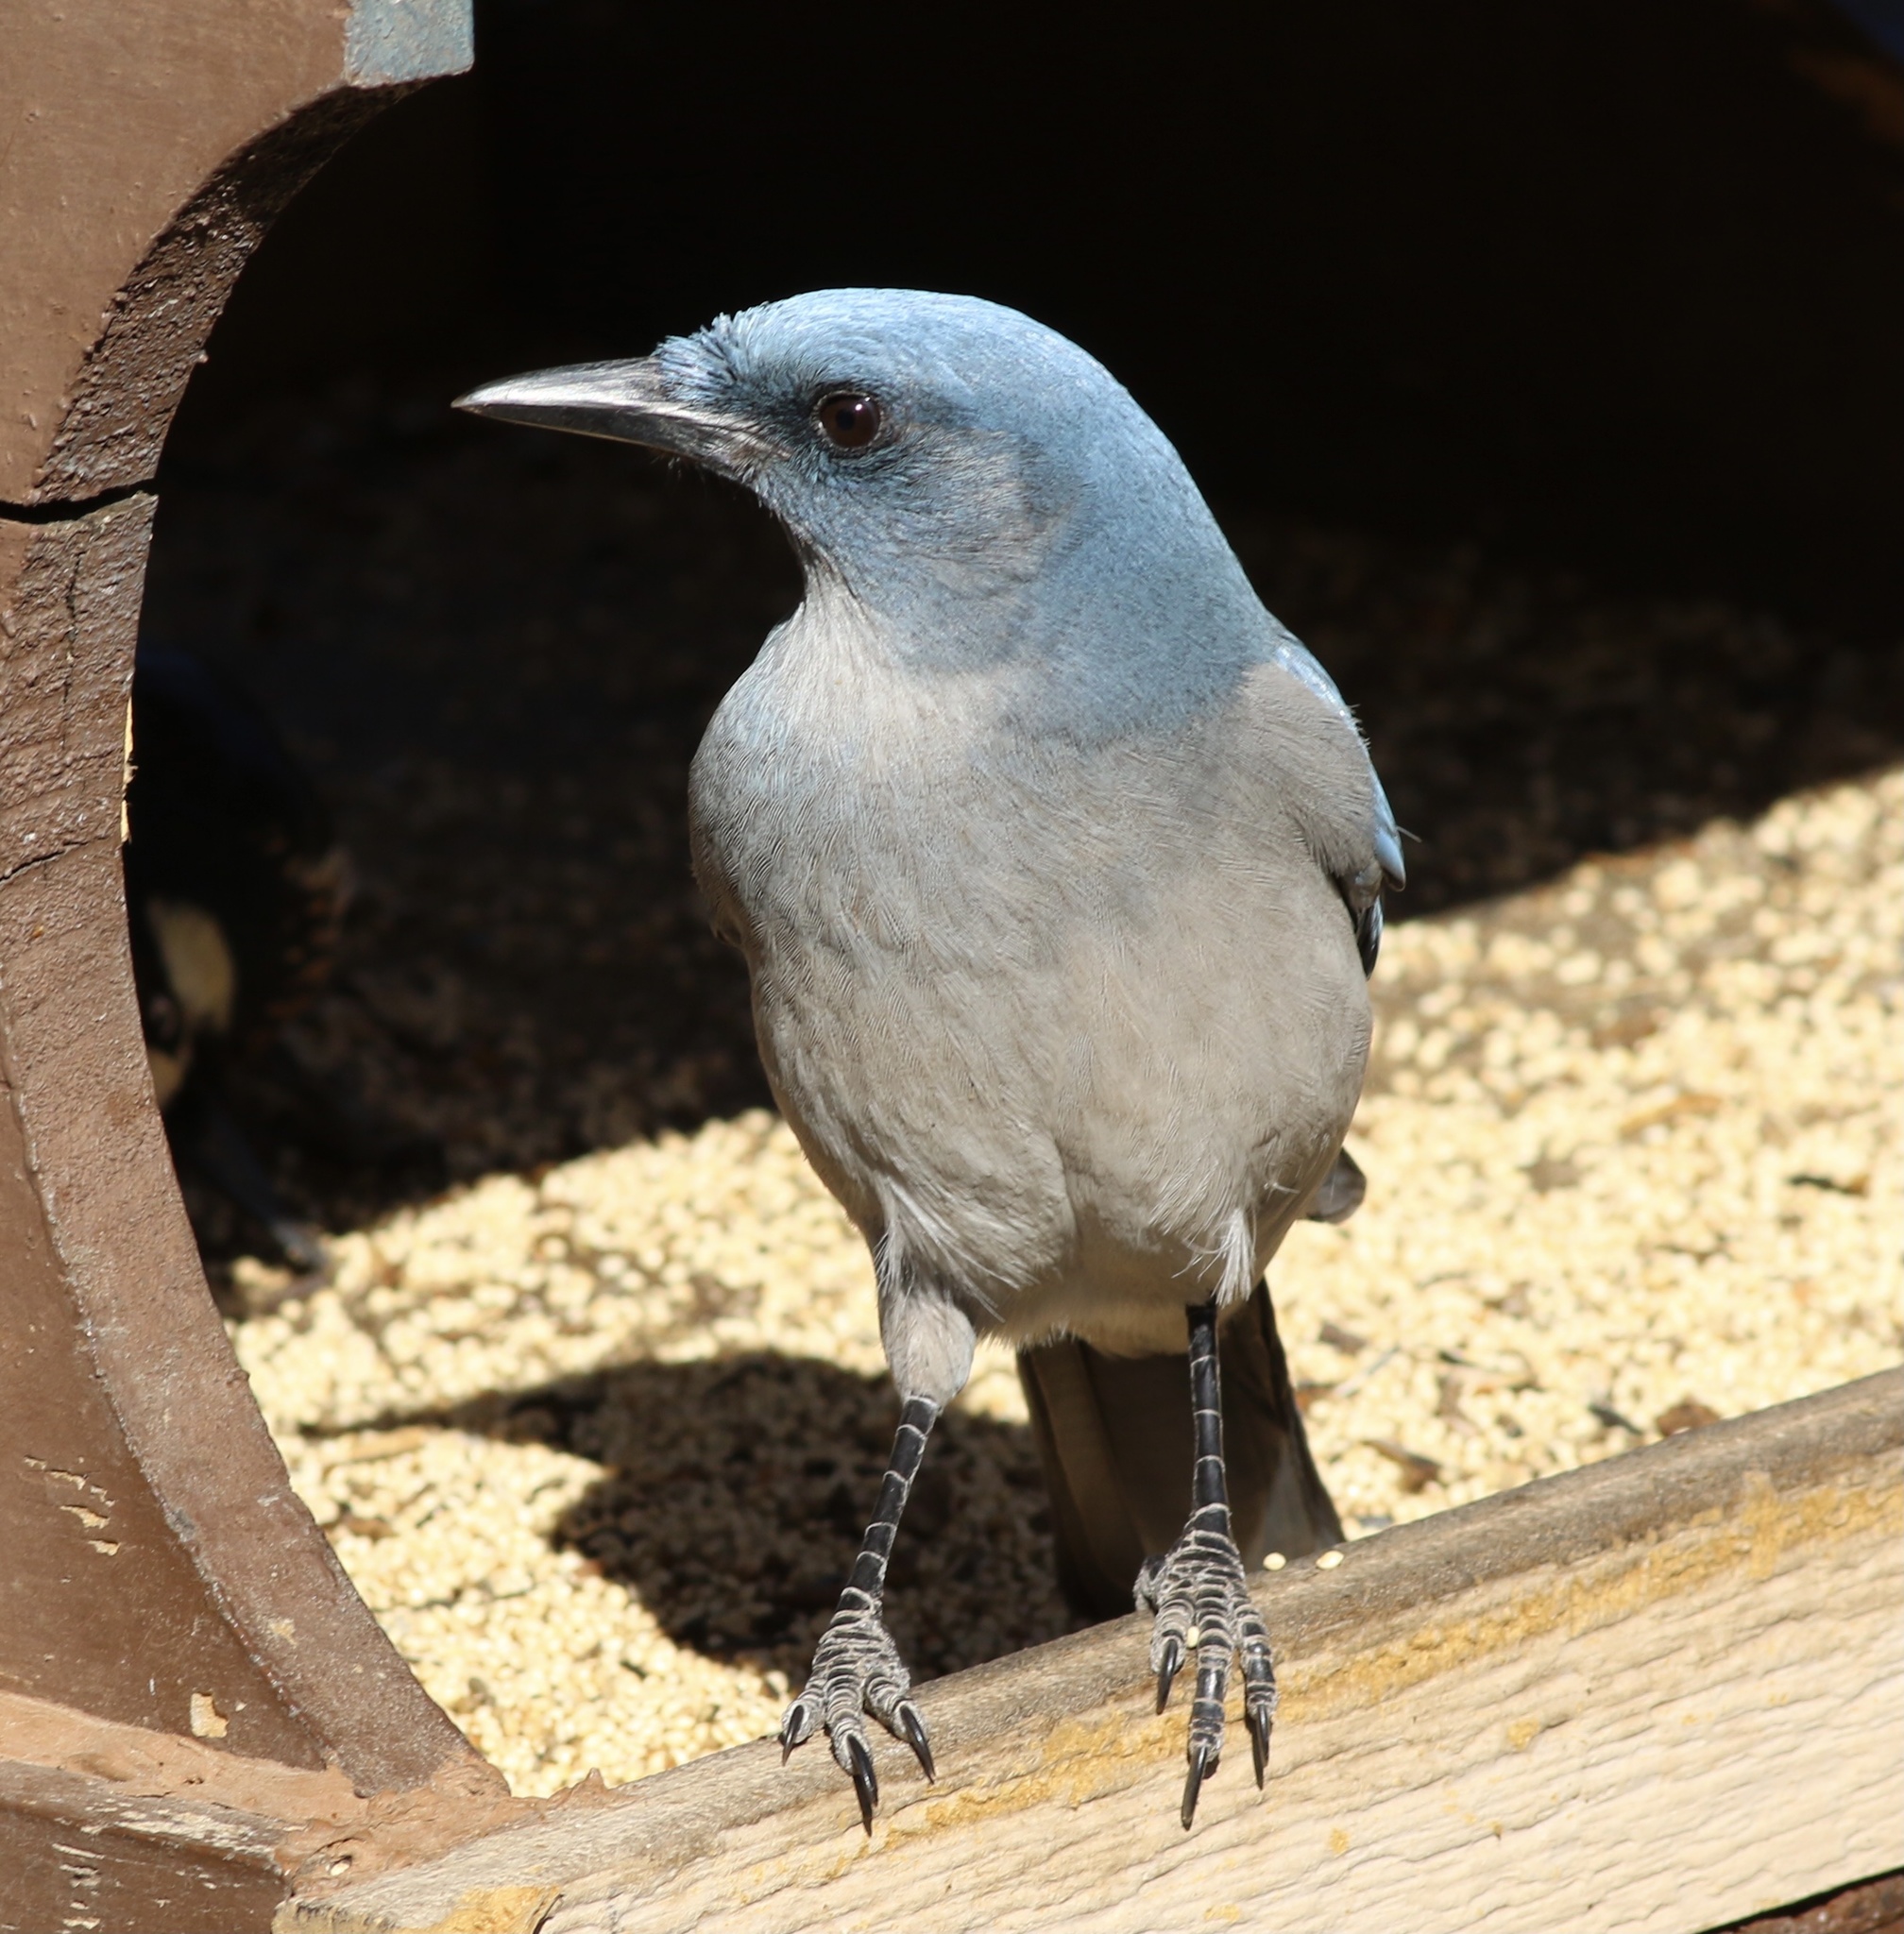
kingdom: Animalia
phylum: Chordata
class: Aves
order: Passeriformes
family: Corvidae
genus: Aphelocoma
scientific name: Aphelocoma wollweberi
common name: Mexican jay
